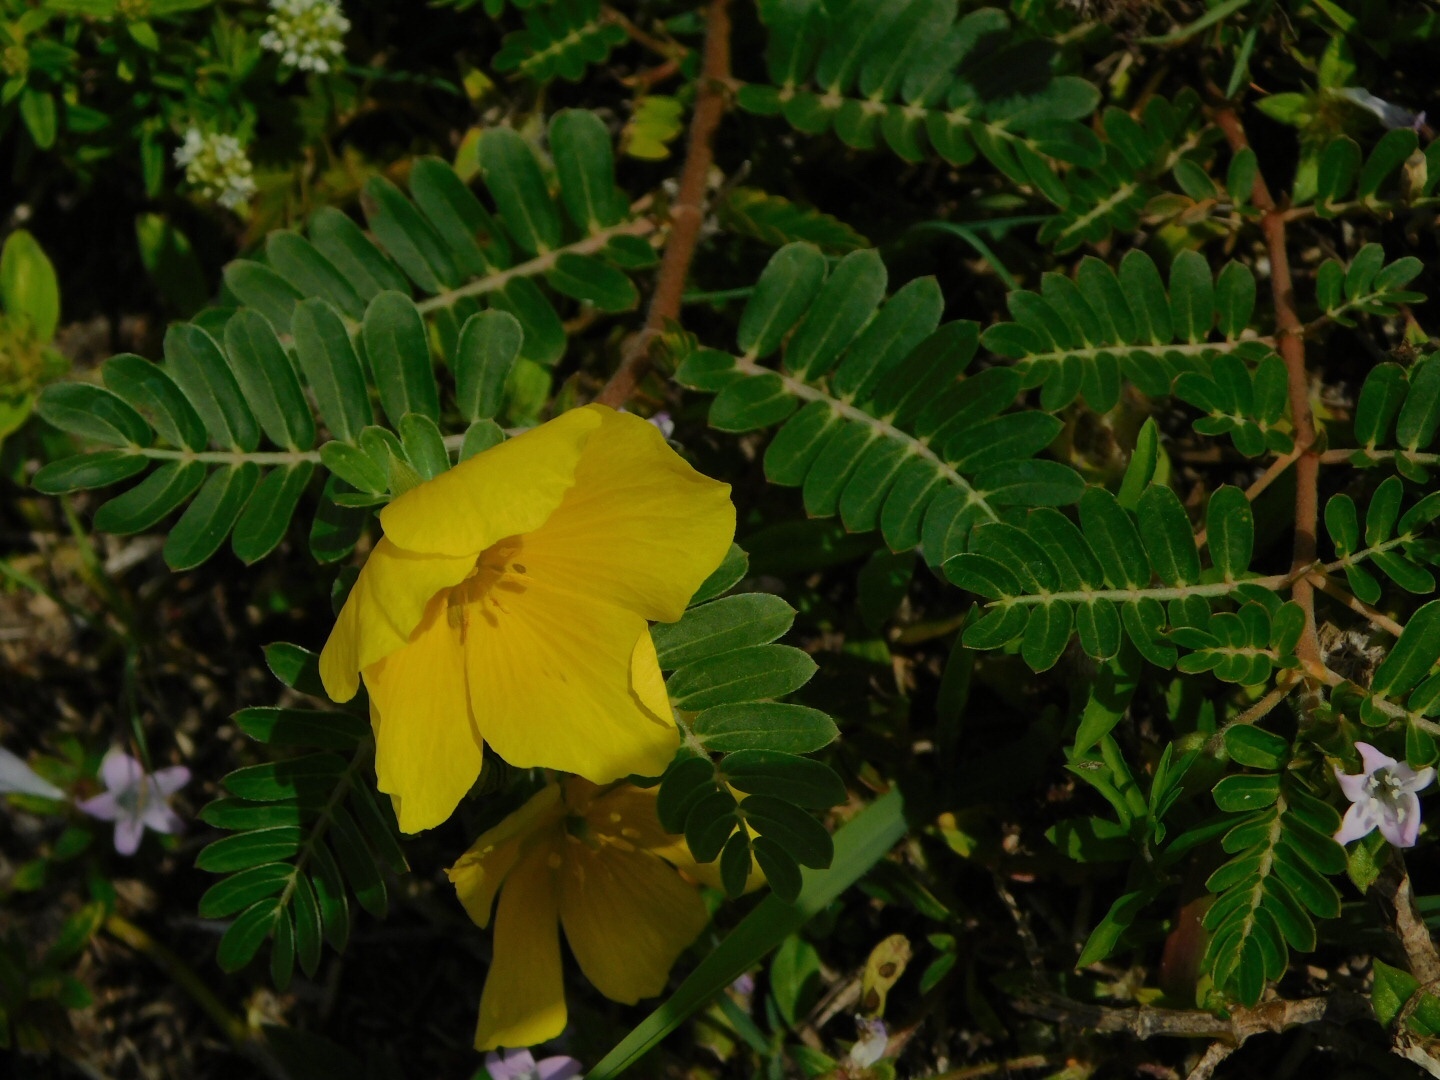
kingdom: Plantae
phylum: Tracheophyta
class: Magnoliopsida
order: Zygophyllales
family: Zygophyllaceae
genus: Tribulus
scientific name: Tribulus cistoides
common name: Jamaican feverplant
